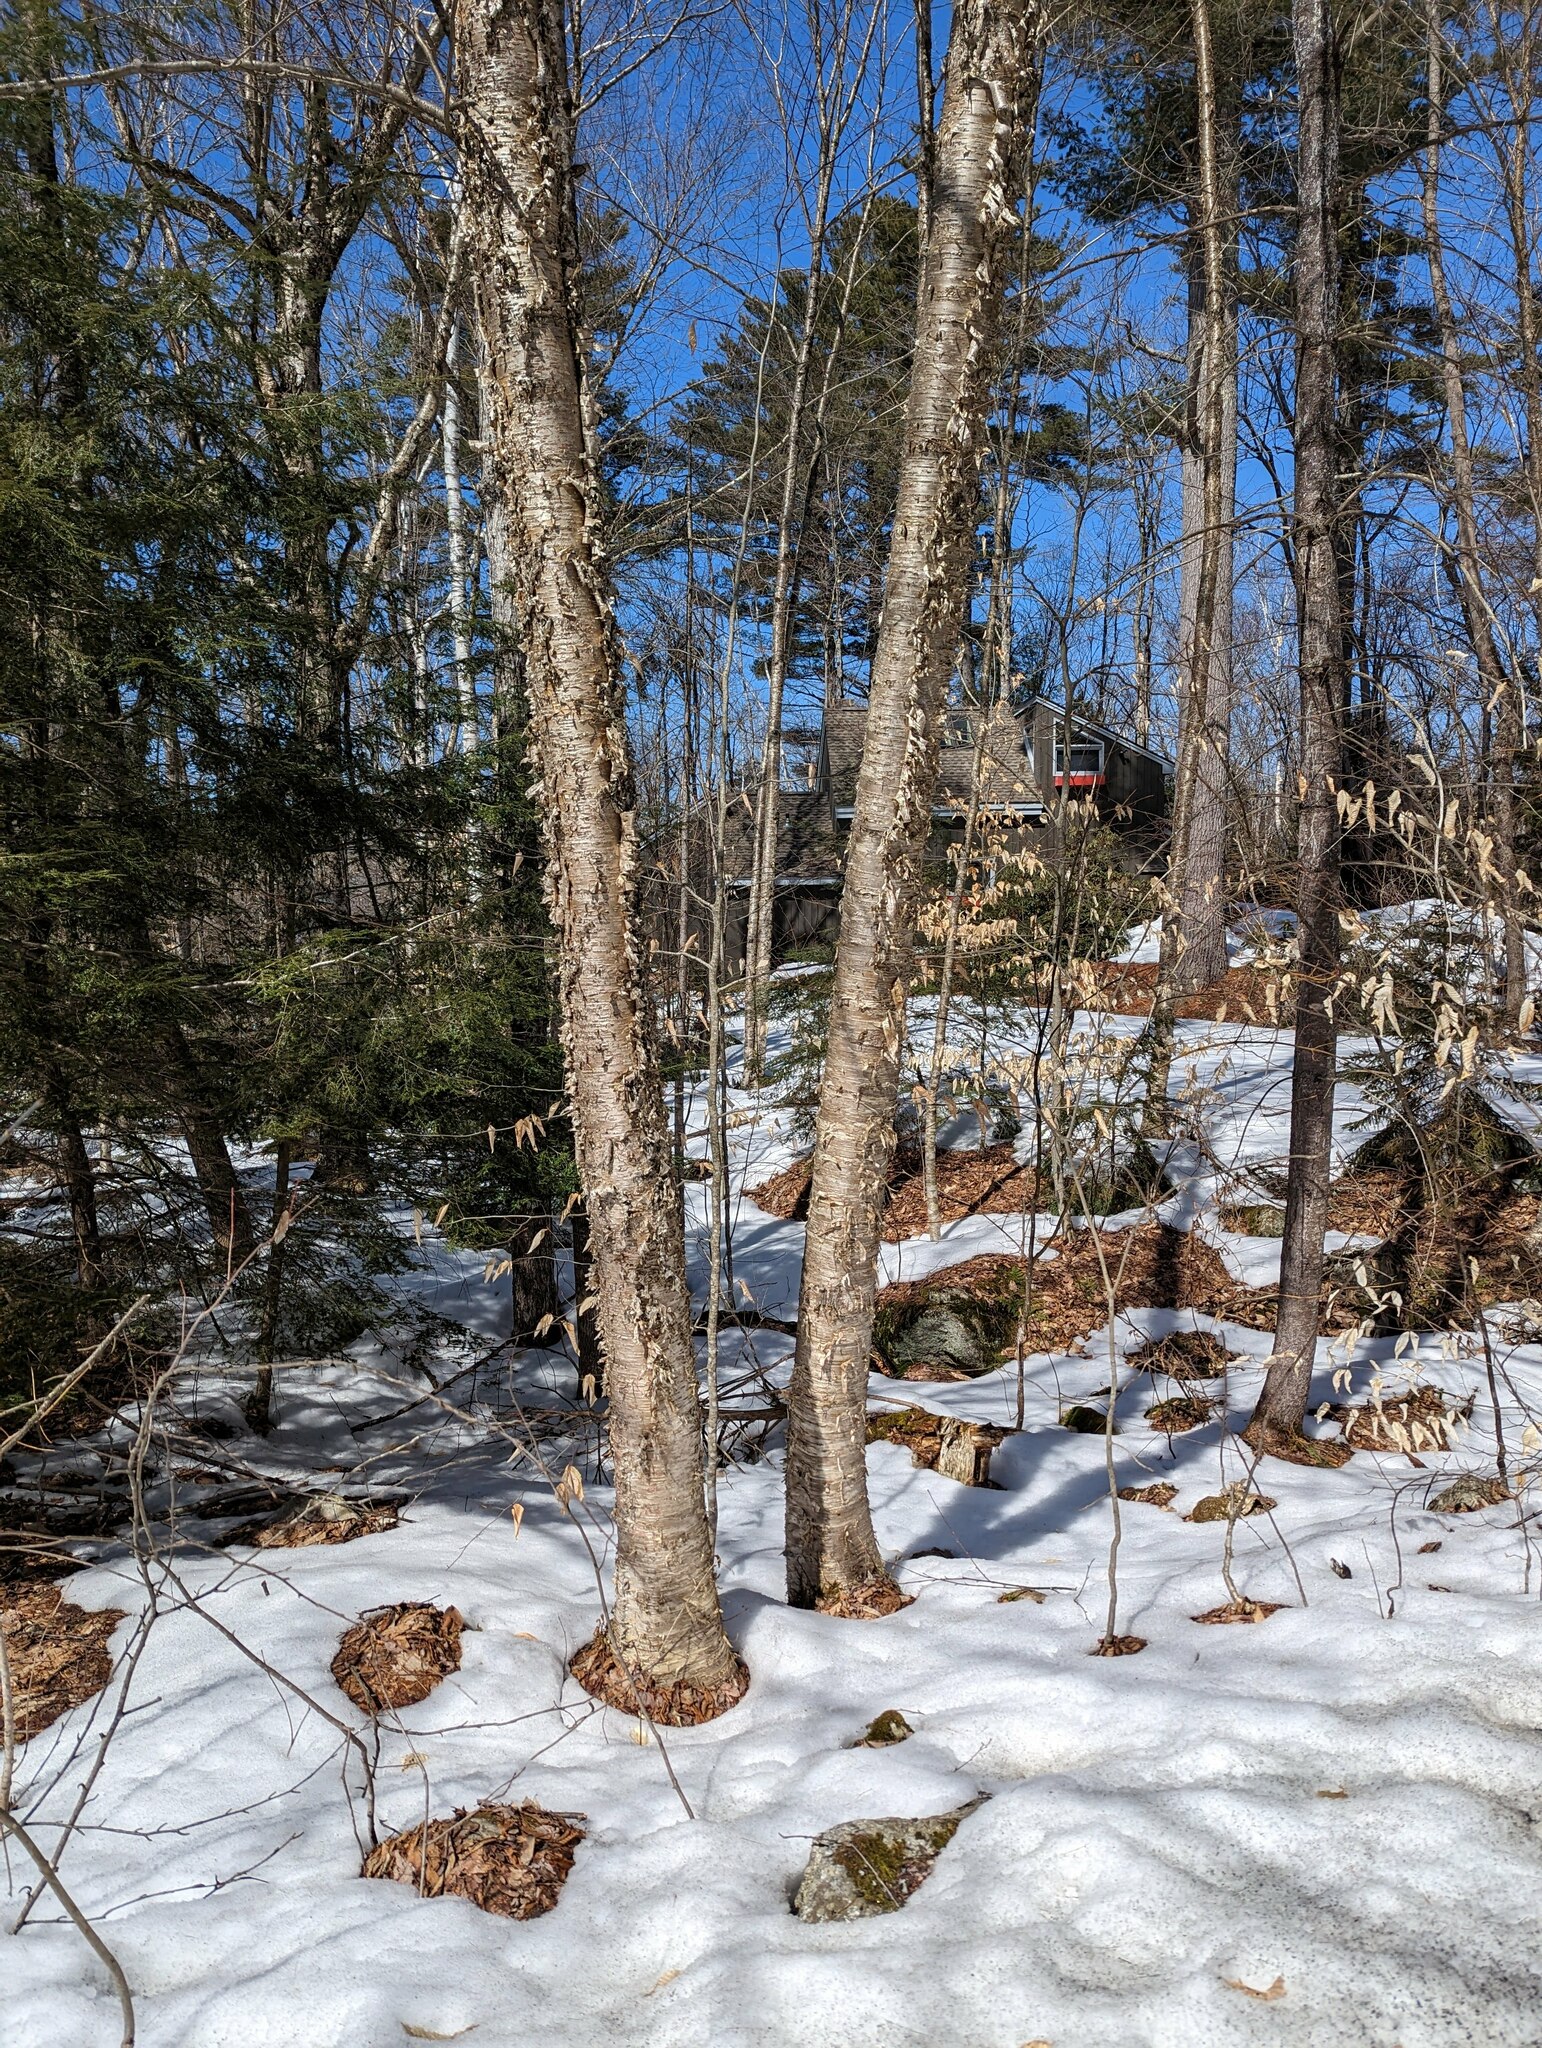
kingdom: Plantae
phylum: Tracheophyta
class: Magnoliopsida
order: Fagales
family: Betulaceae
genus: Betula
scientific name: Betula alleghaniensis
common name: Yellow birch
